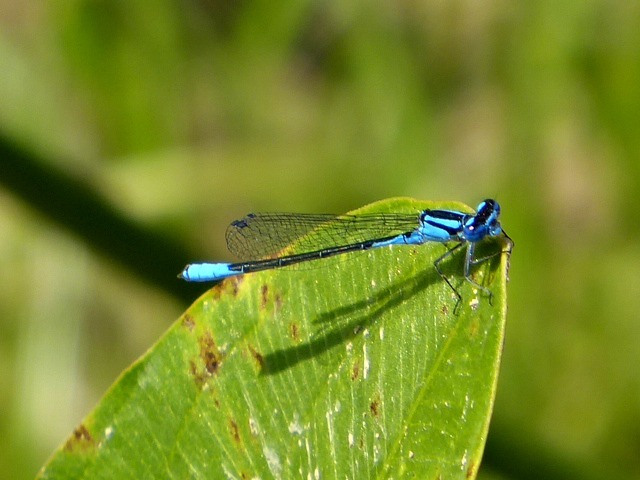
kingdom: Animalia
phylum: Arthropoda
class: Insecta
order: Odonata
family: Coenagrionidae
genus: Enallagma
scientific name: Enallagma aspersum
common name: Azure bluet
